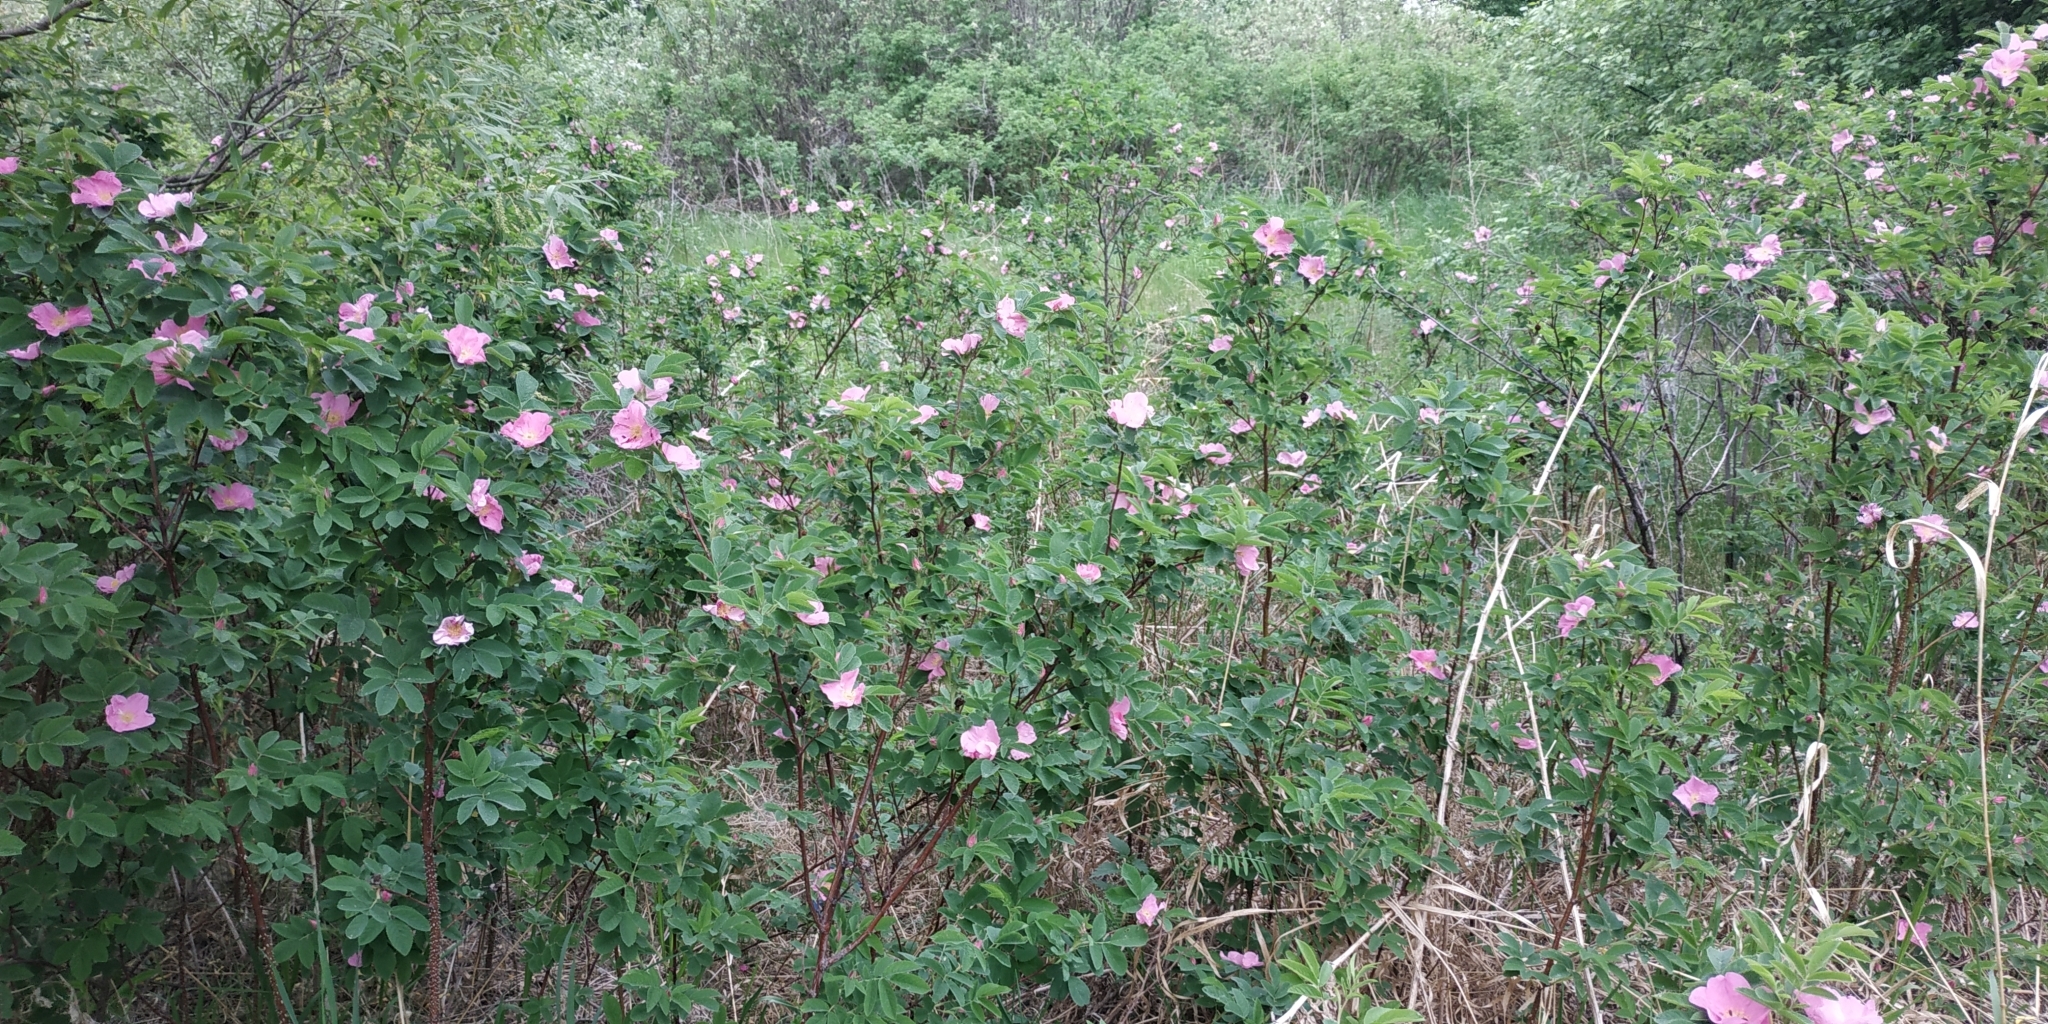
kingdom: Plantae
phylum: Tracheophyta
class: Magnoliopsida
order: Rosales
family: Rosaceae
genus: Rosa
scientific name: Rosa majalis
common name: Cinnamon rose
